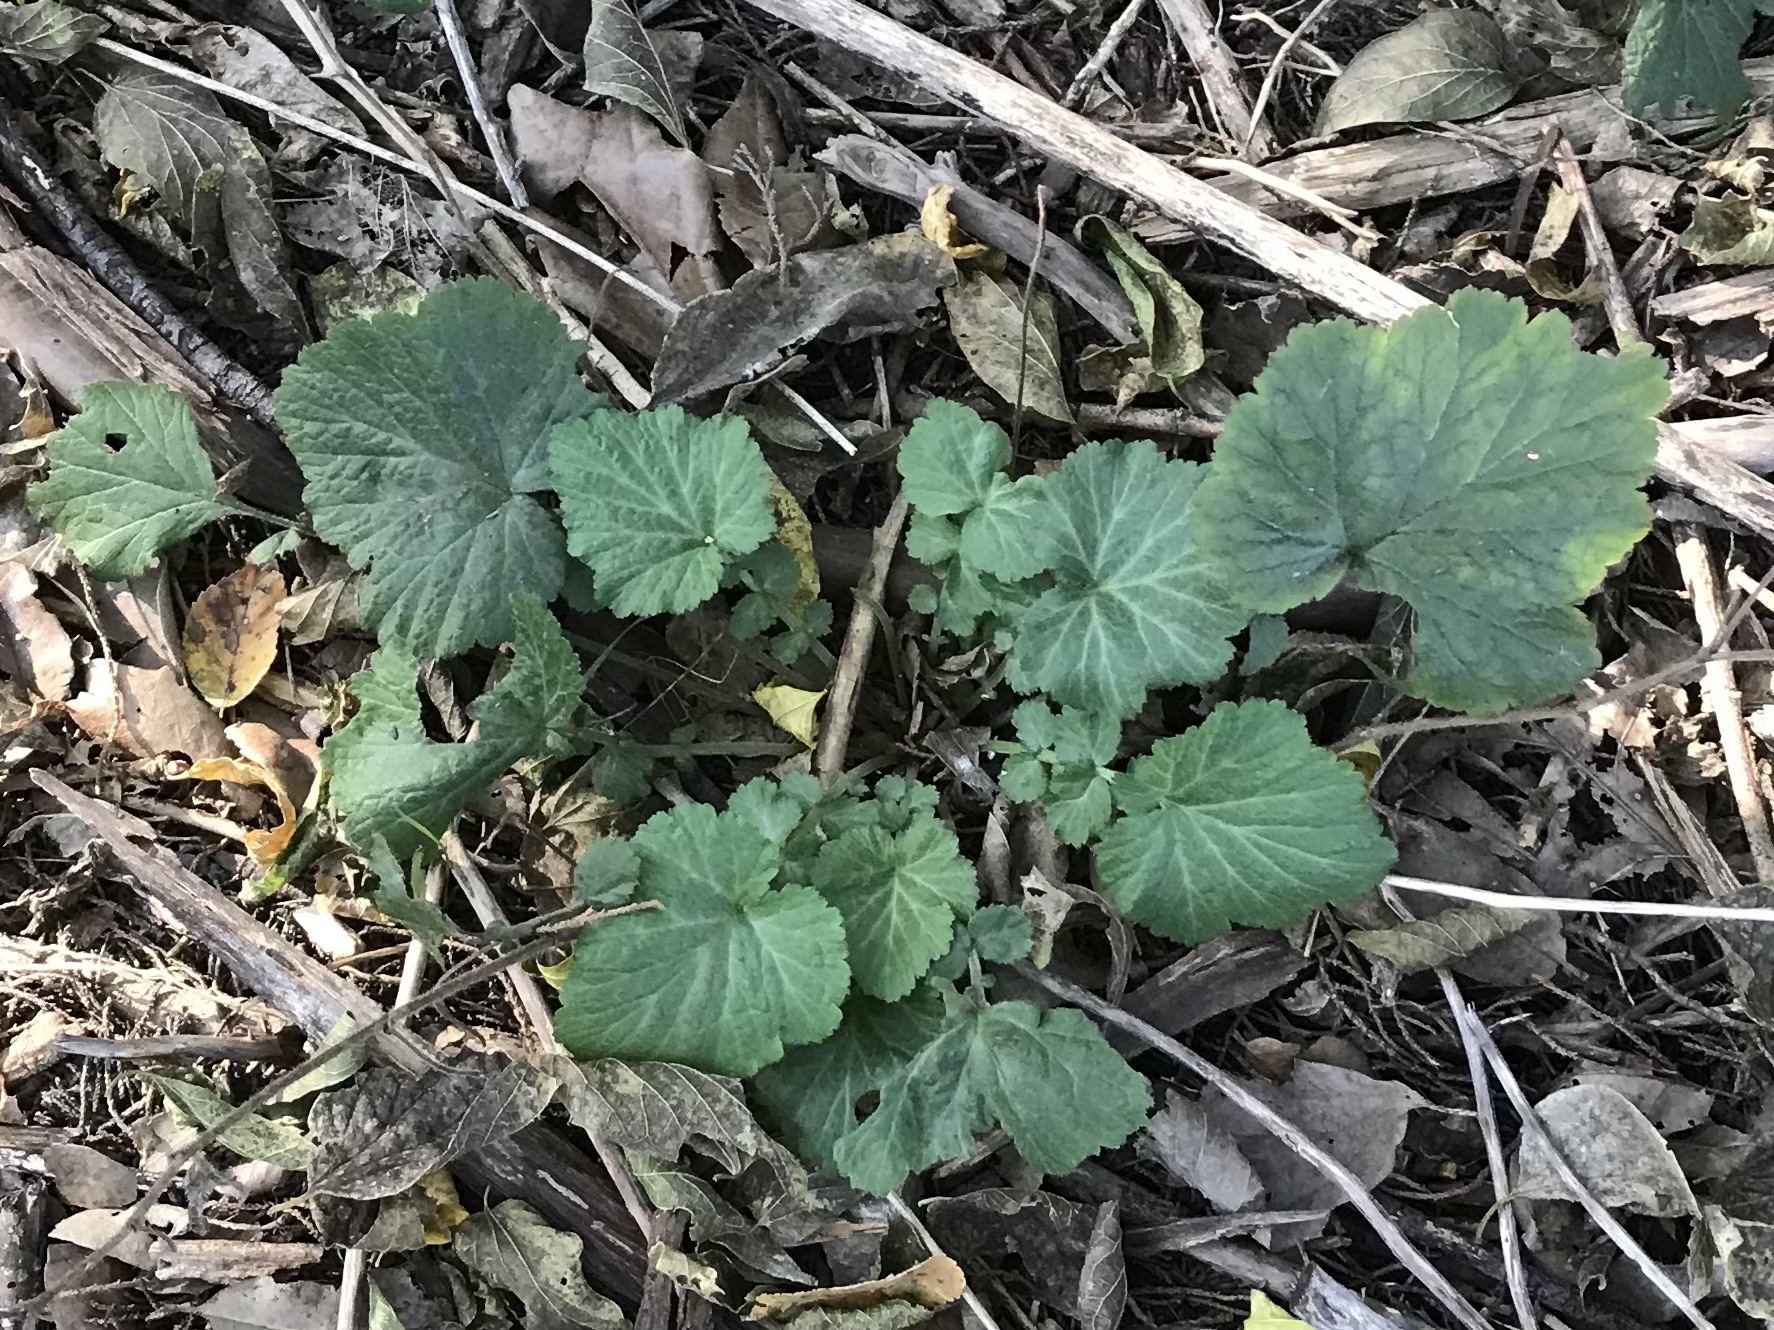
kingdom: Plantae
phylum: Tracheophyta
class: Magnoliopsida
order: Rosales
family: Rosaceae
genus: Geum
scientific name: Geum canadense
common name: White avens
